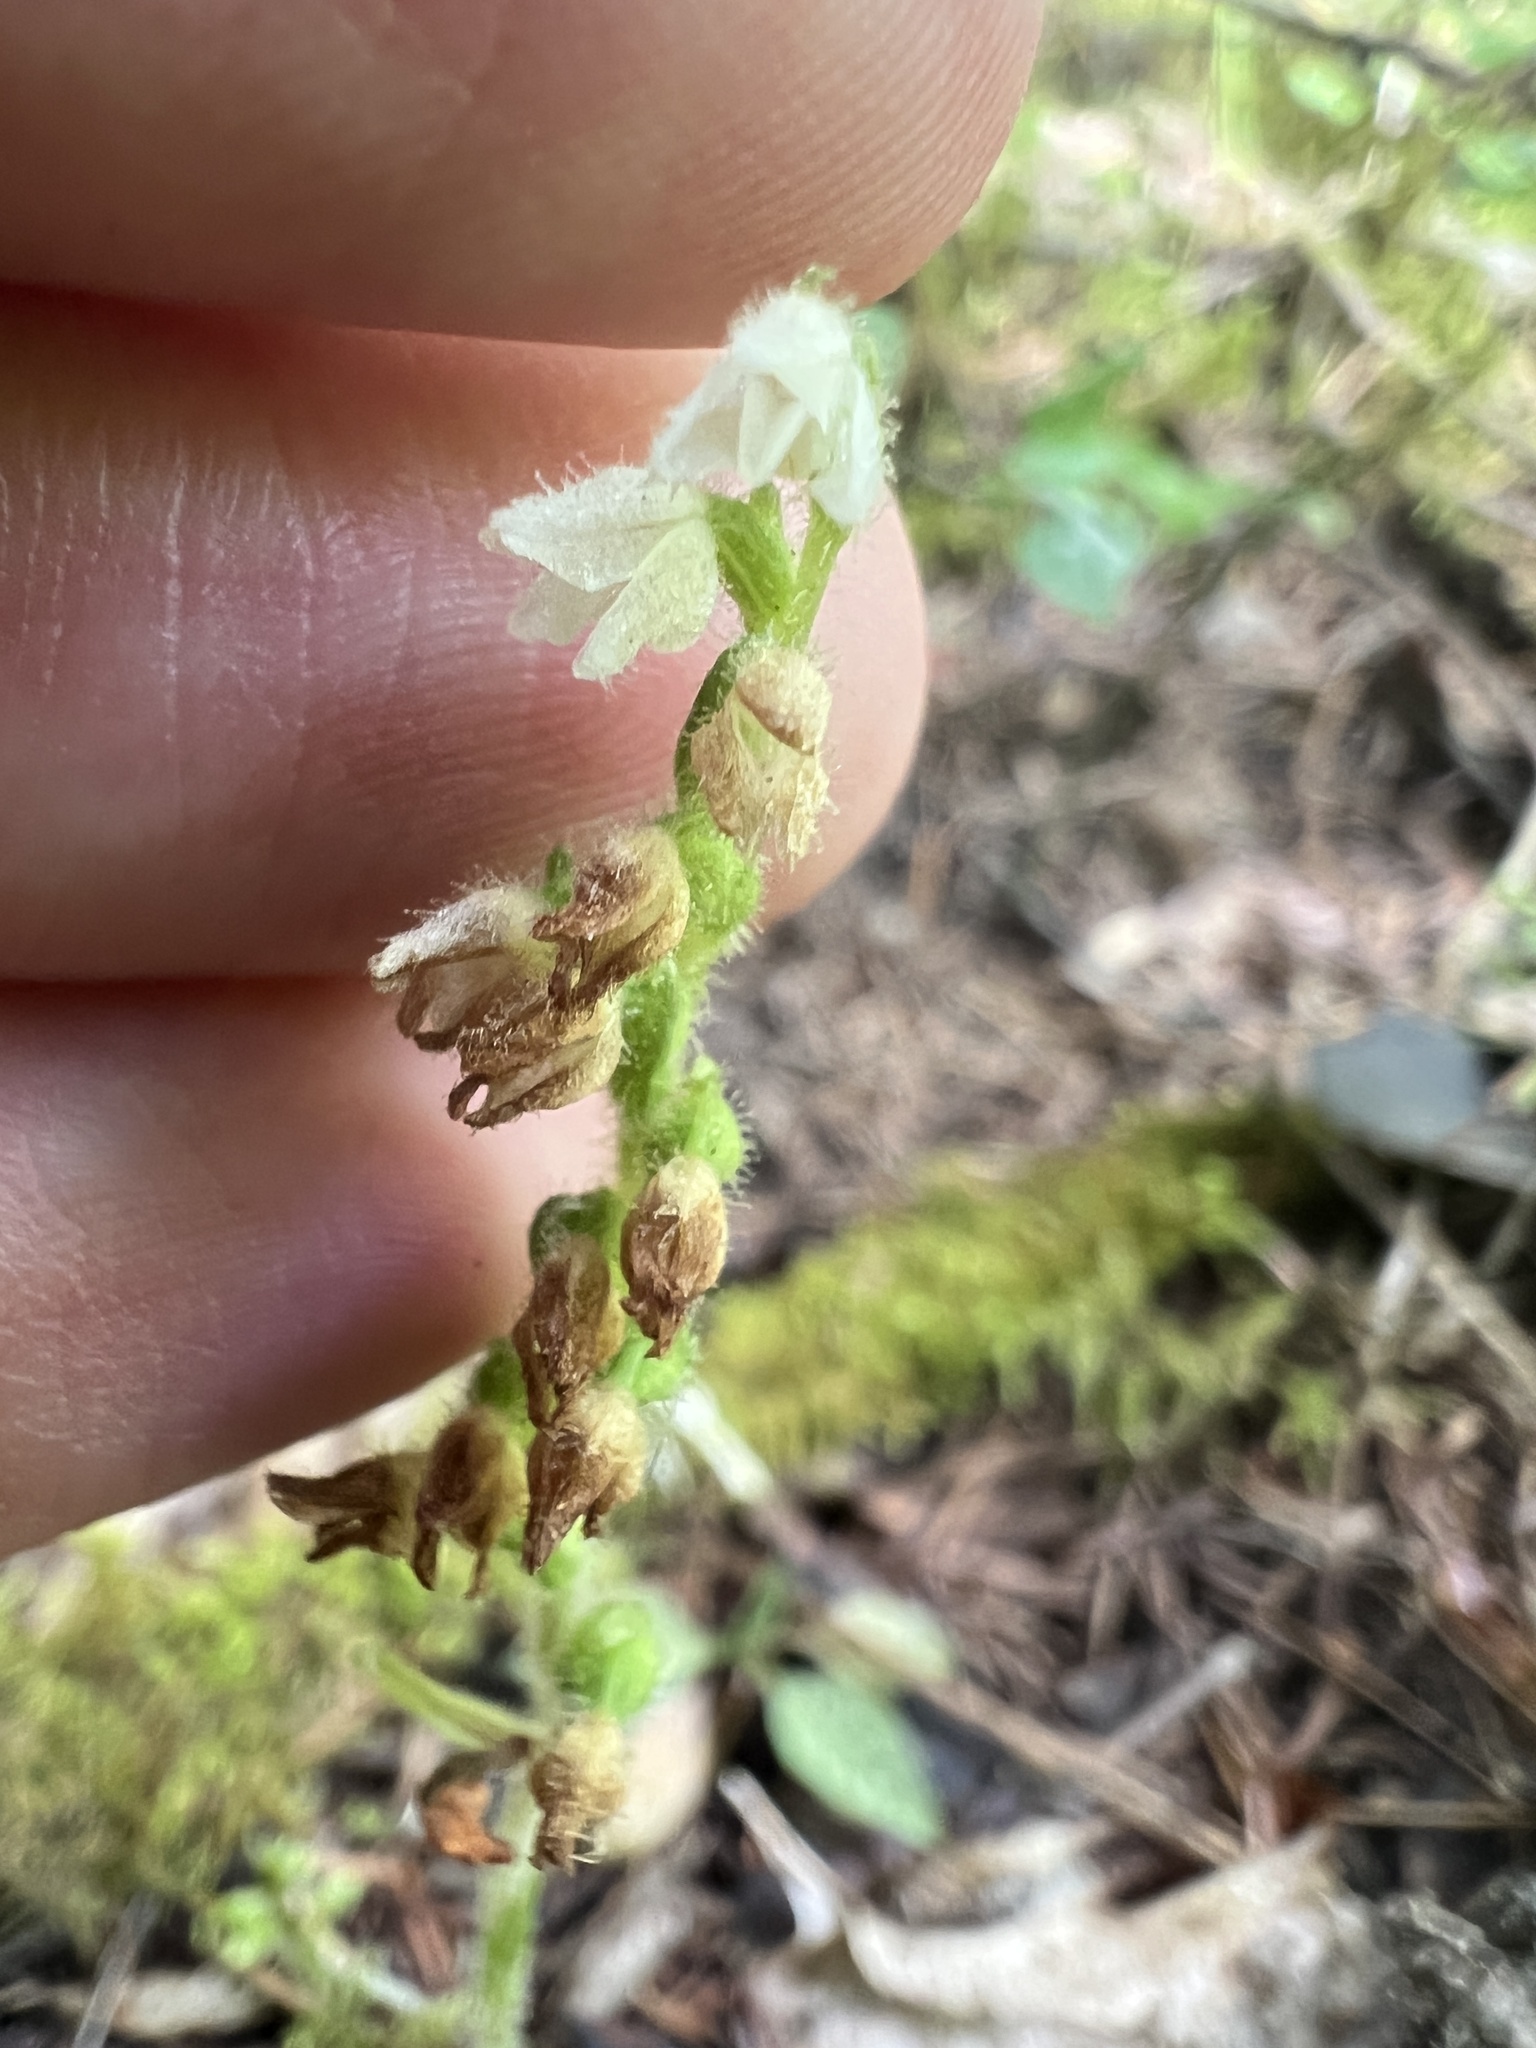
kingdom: Plantae
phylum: Tracheophyta
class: Liliopsida
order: Asparagales
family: Orchidaceae
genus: Goodyera
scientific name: Goodyera repens
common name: Creeping lady's-tresses
